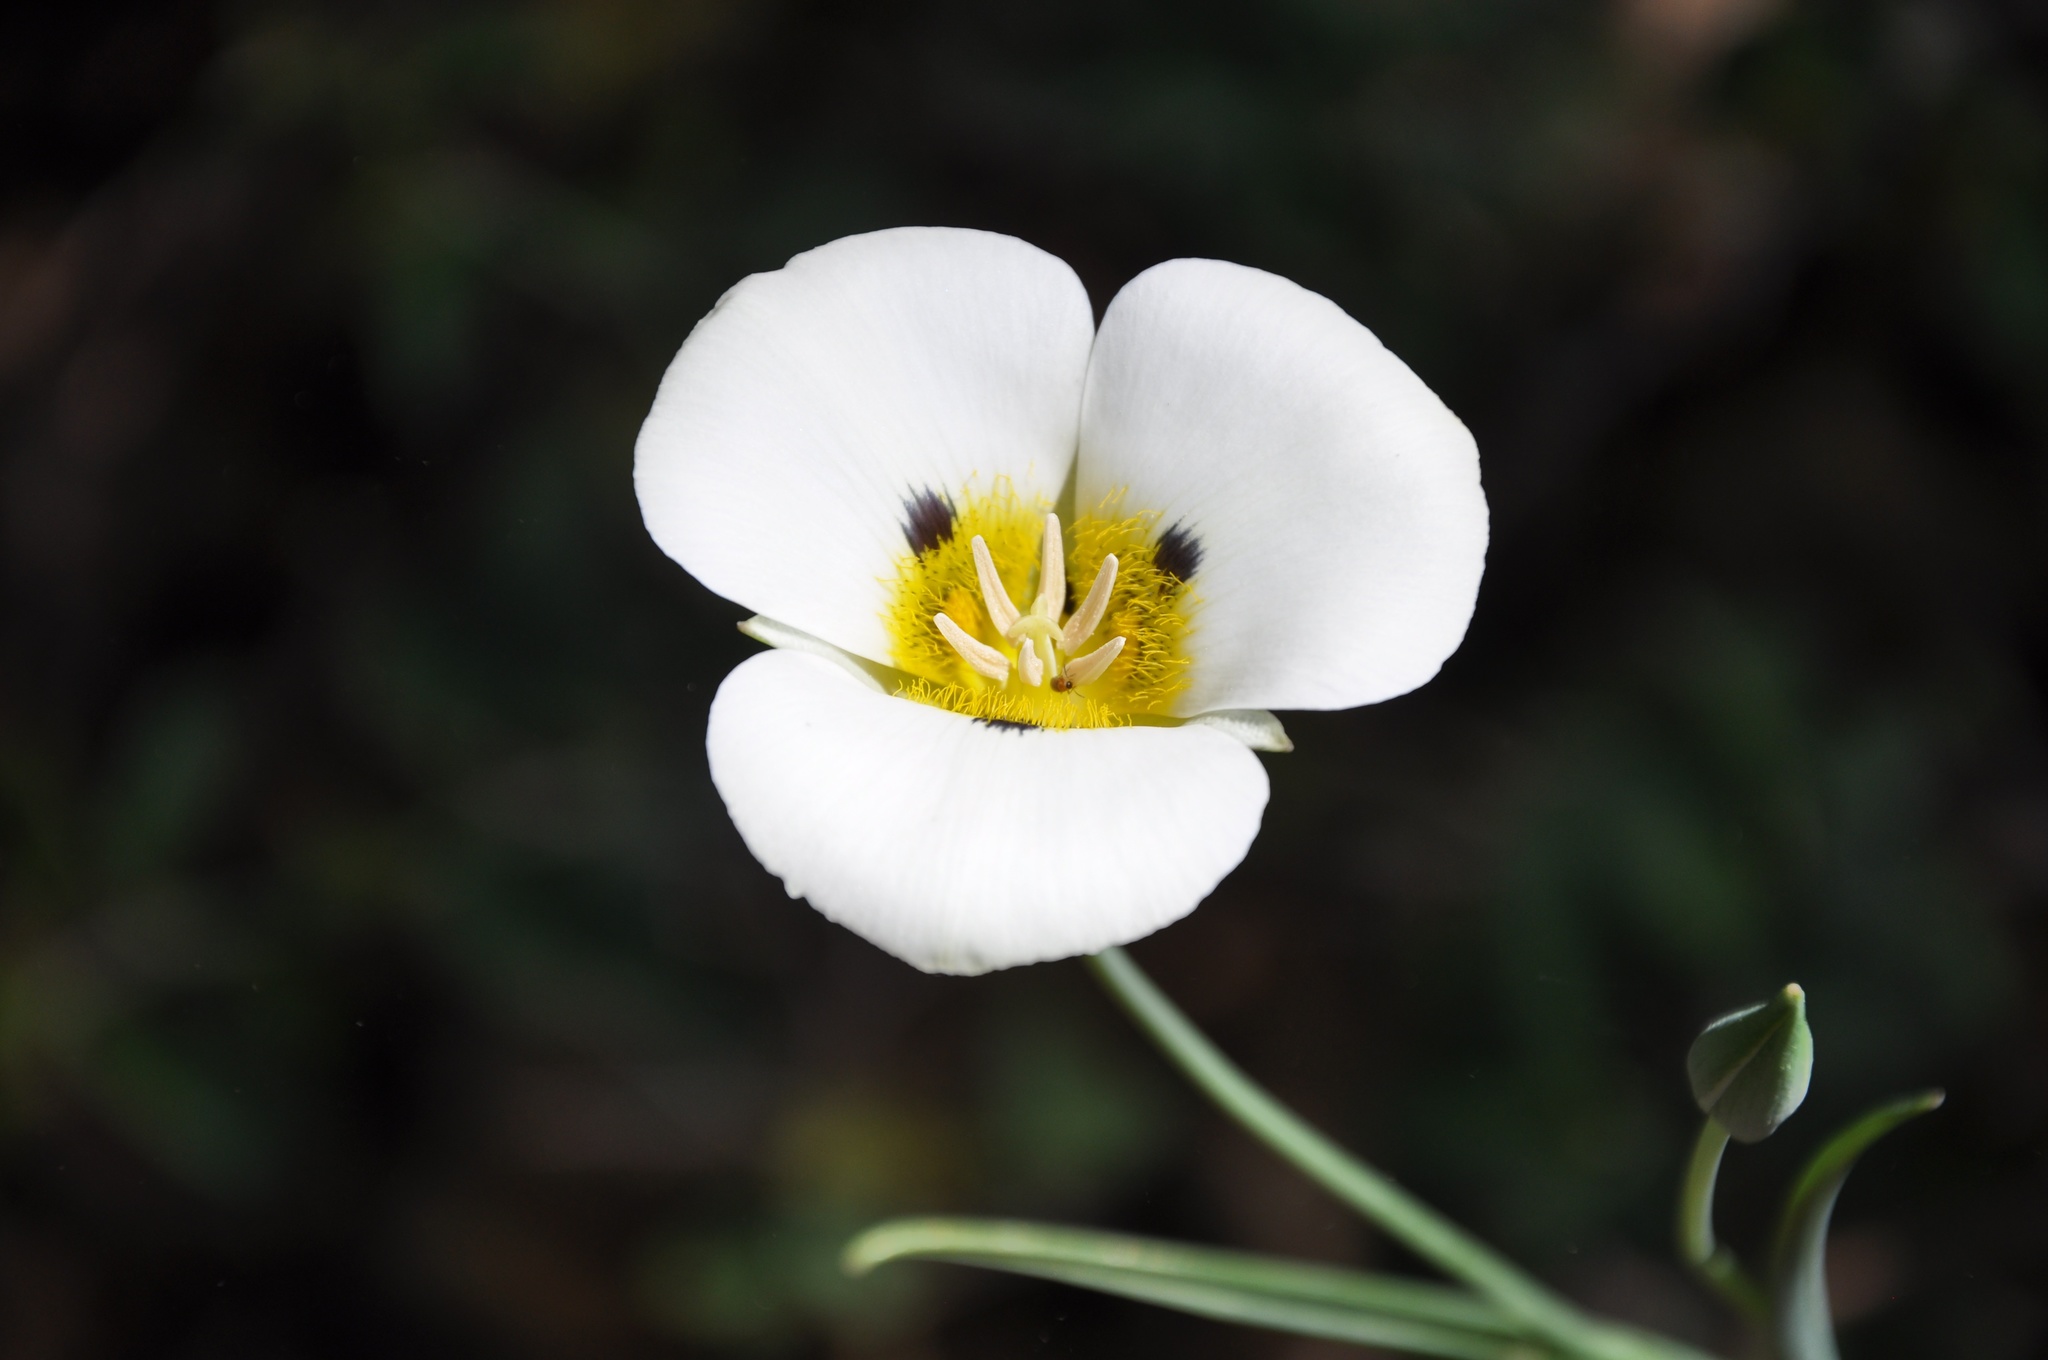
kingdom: Plantae
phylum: Tracheophyta
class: Liliopsida
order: Liliales
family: Liliaceae
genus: Calochortus
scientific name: Calochortus leichtlinii
